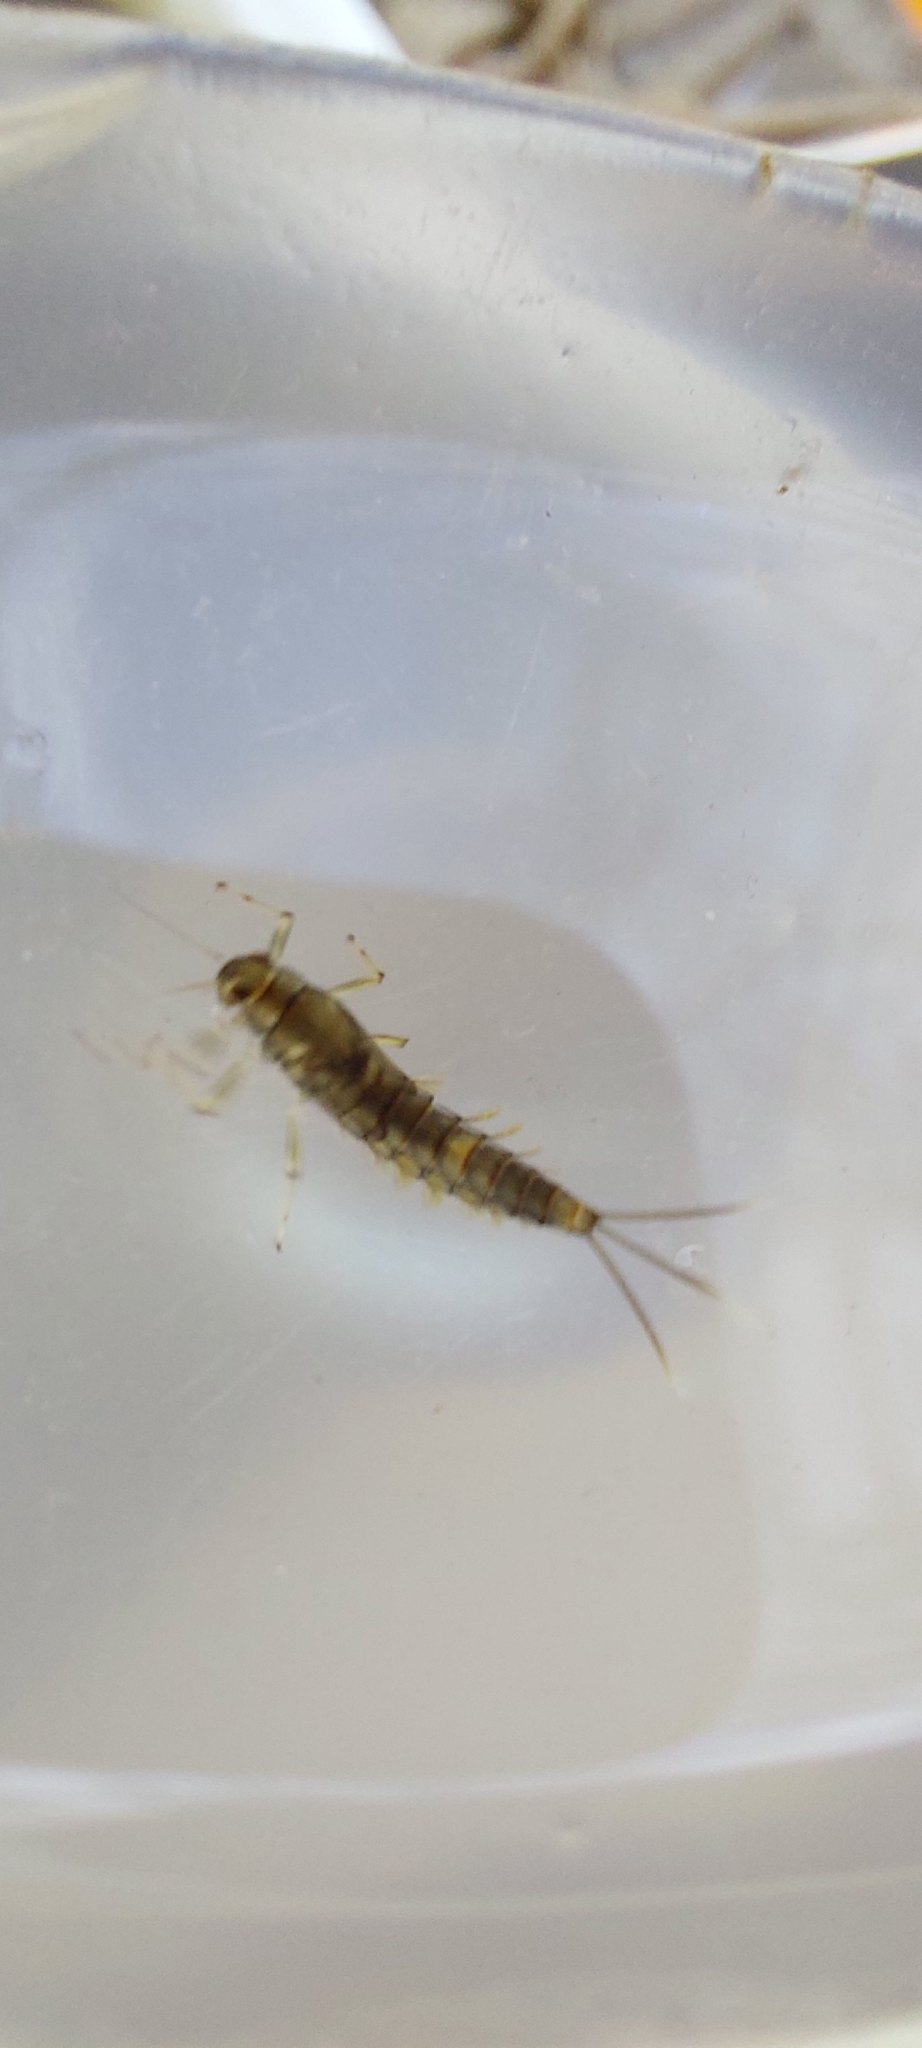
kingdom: Animalia
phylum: Arthropoda
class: Insecta
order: Ephemeroptera
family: Baetidae
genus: Baetis
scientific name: Baetis rhodani
